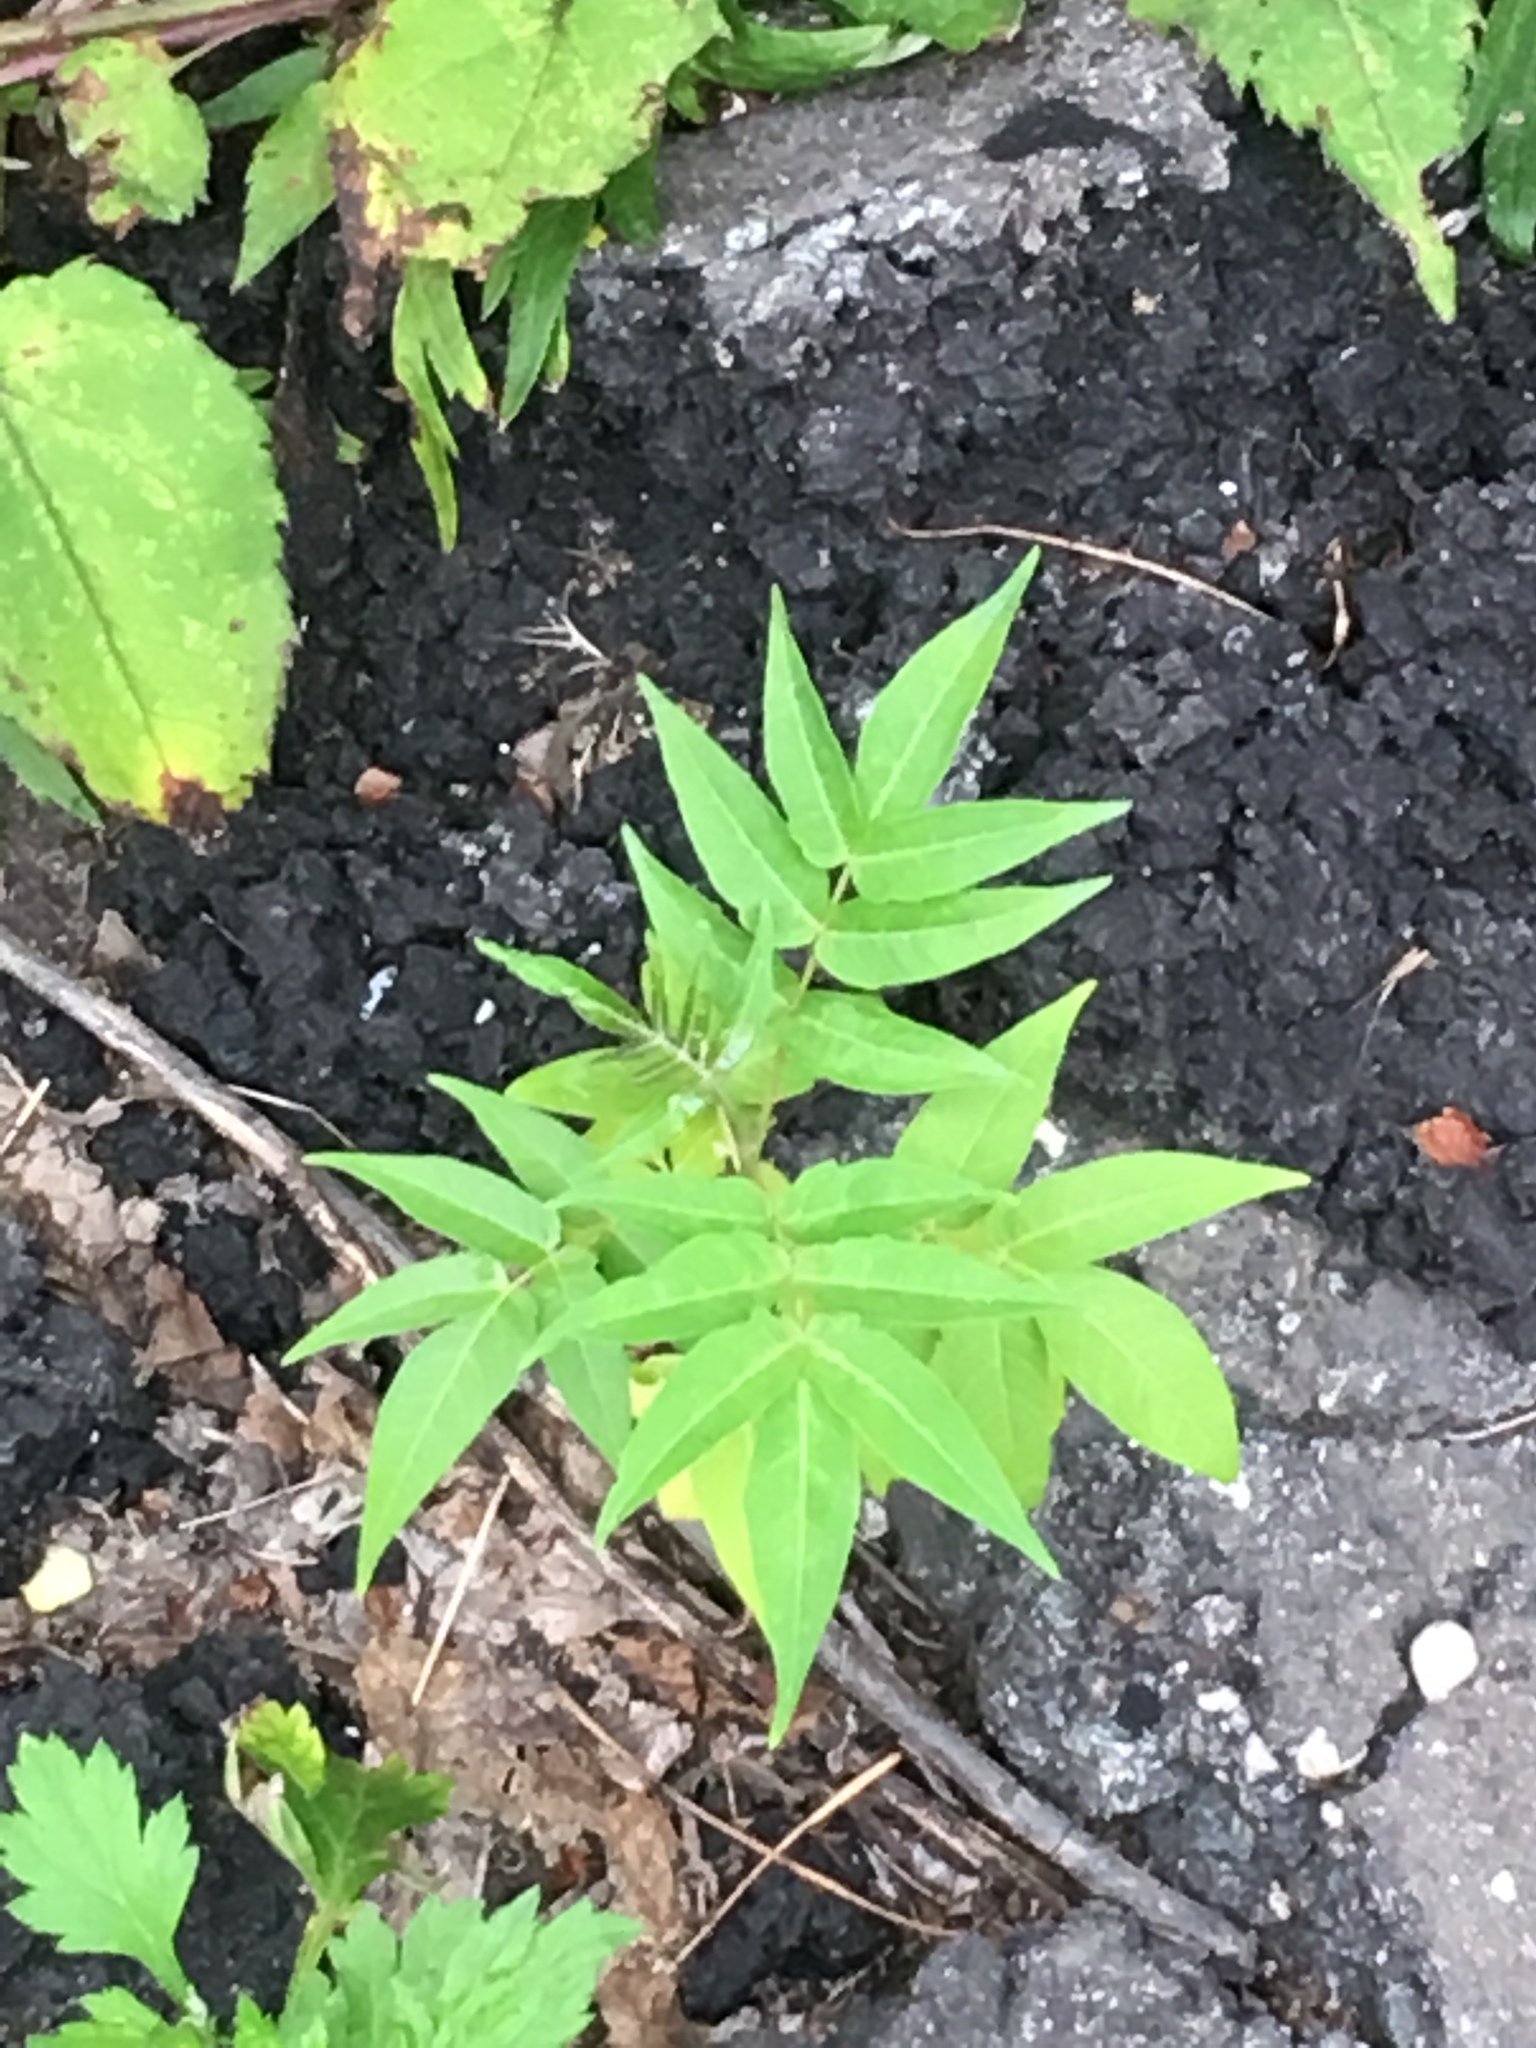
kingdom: Plantae
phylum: Tracheophyta
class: Magnoliopsida
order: Sapindales
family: Simaroubaceae
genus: Ailanthus
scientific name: Ailanthus altissima
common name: Tree-of-heaven
